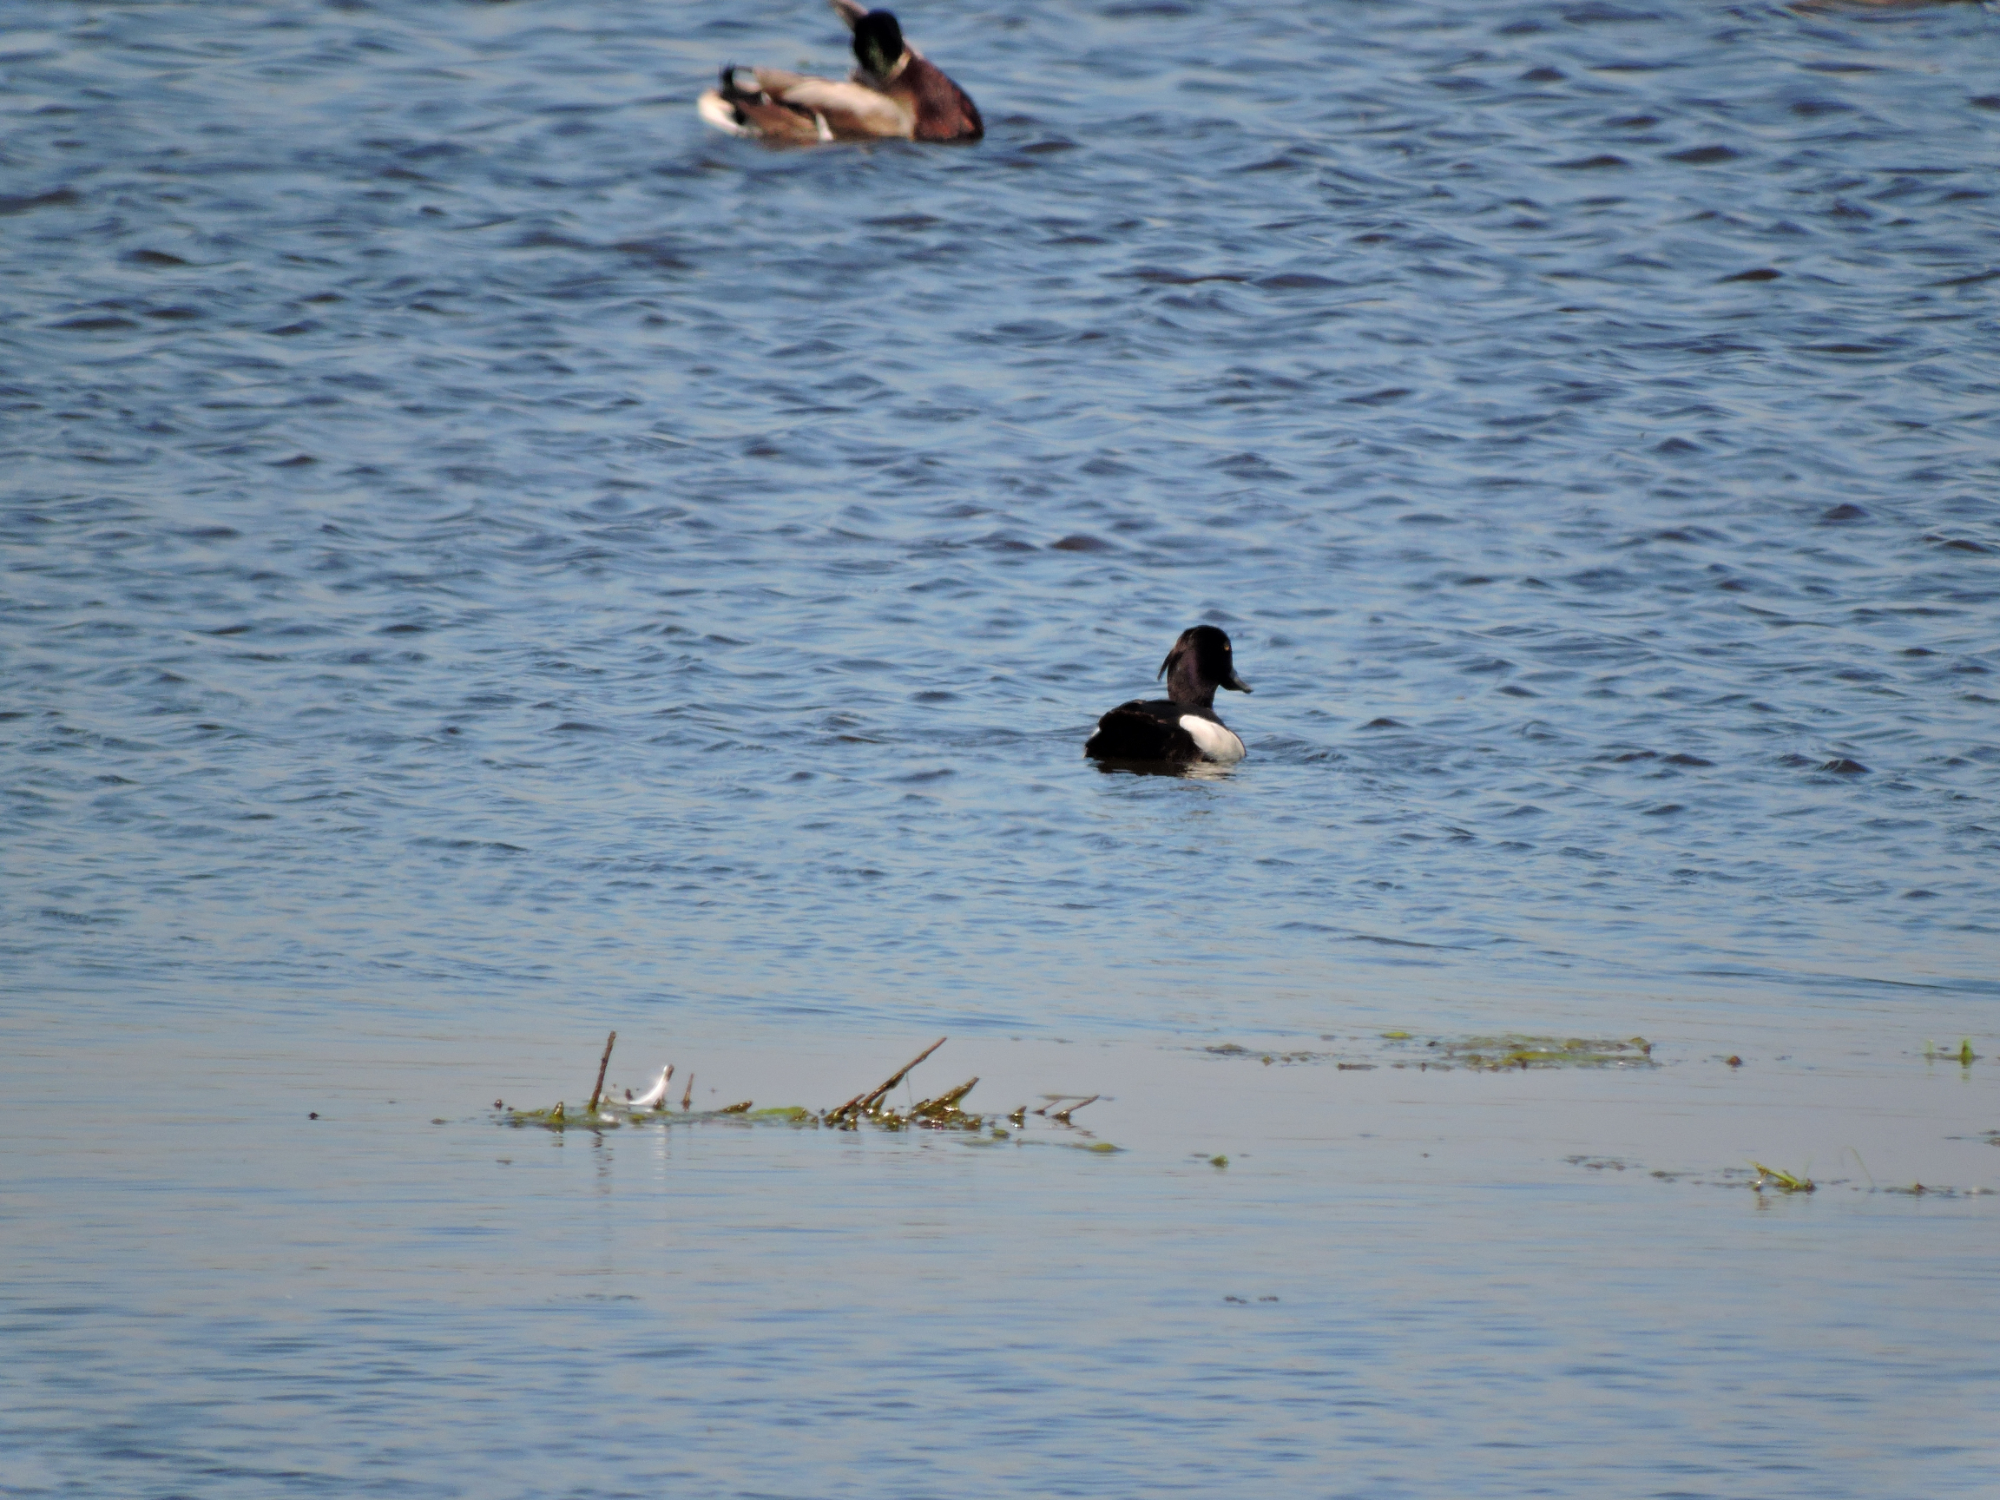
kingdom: Animalia
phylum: Chordata
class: Aves
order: Anseriformes
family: Anatidae
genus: Aythya
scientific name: Aythya fuligula
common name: Tufted duck
